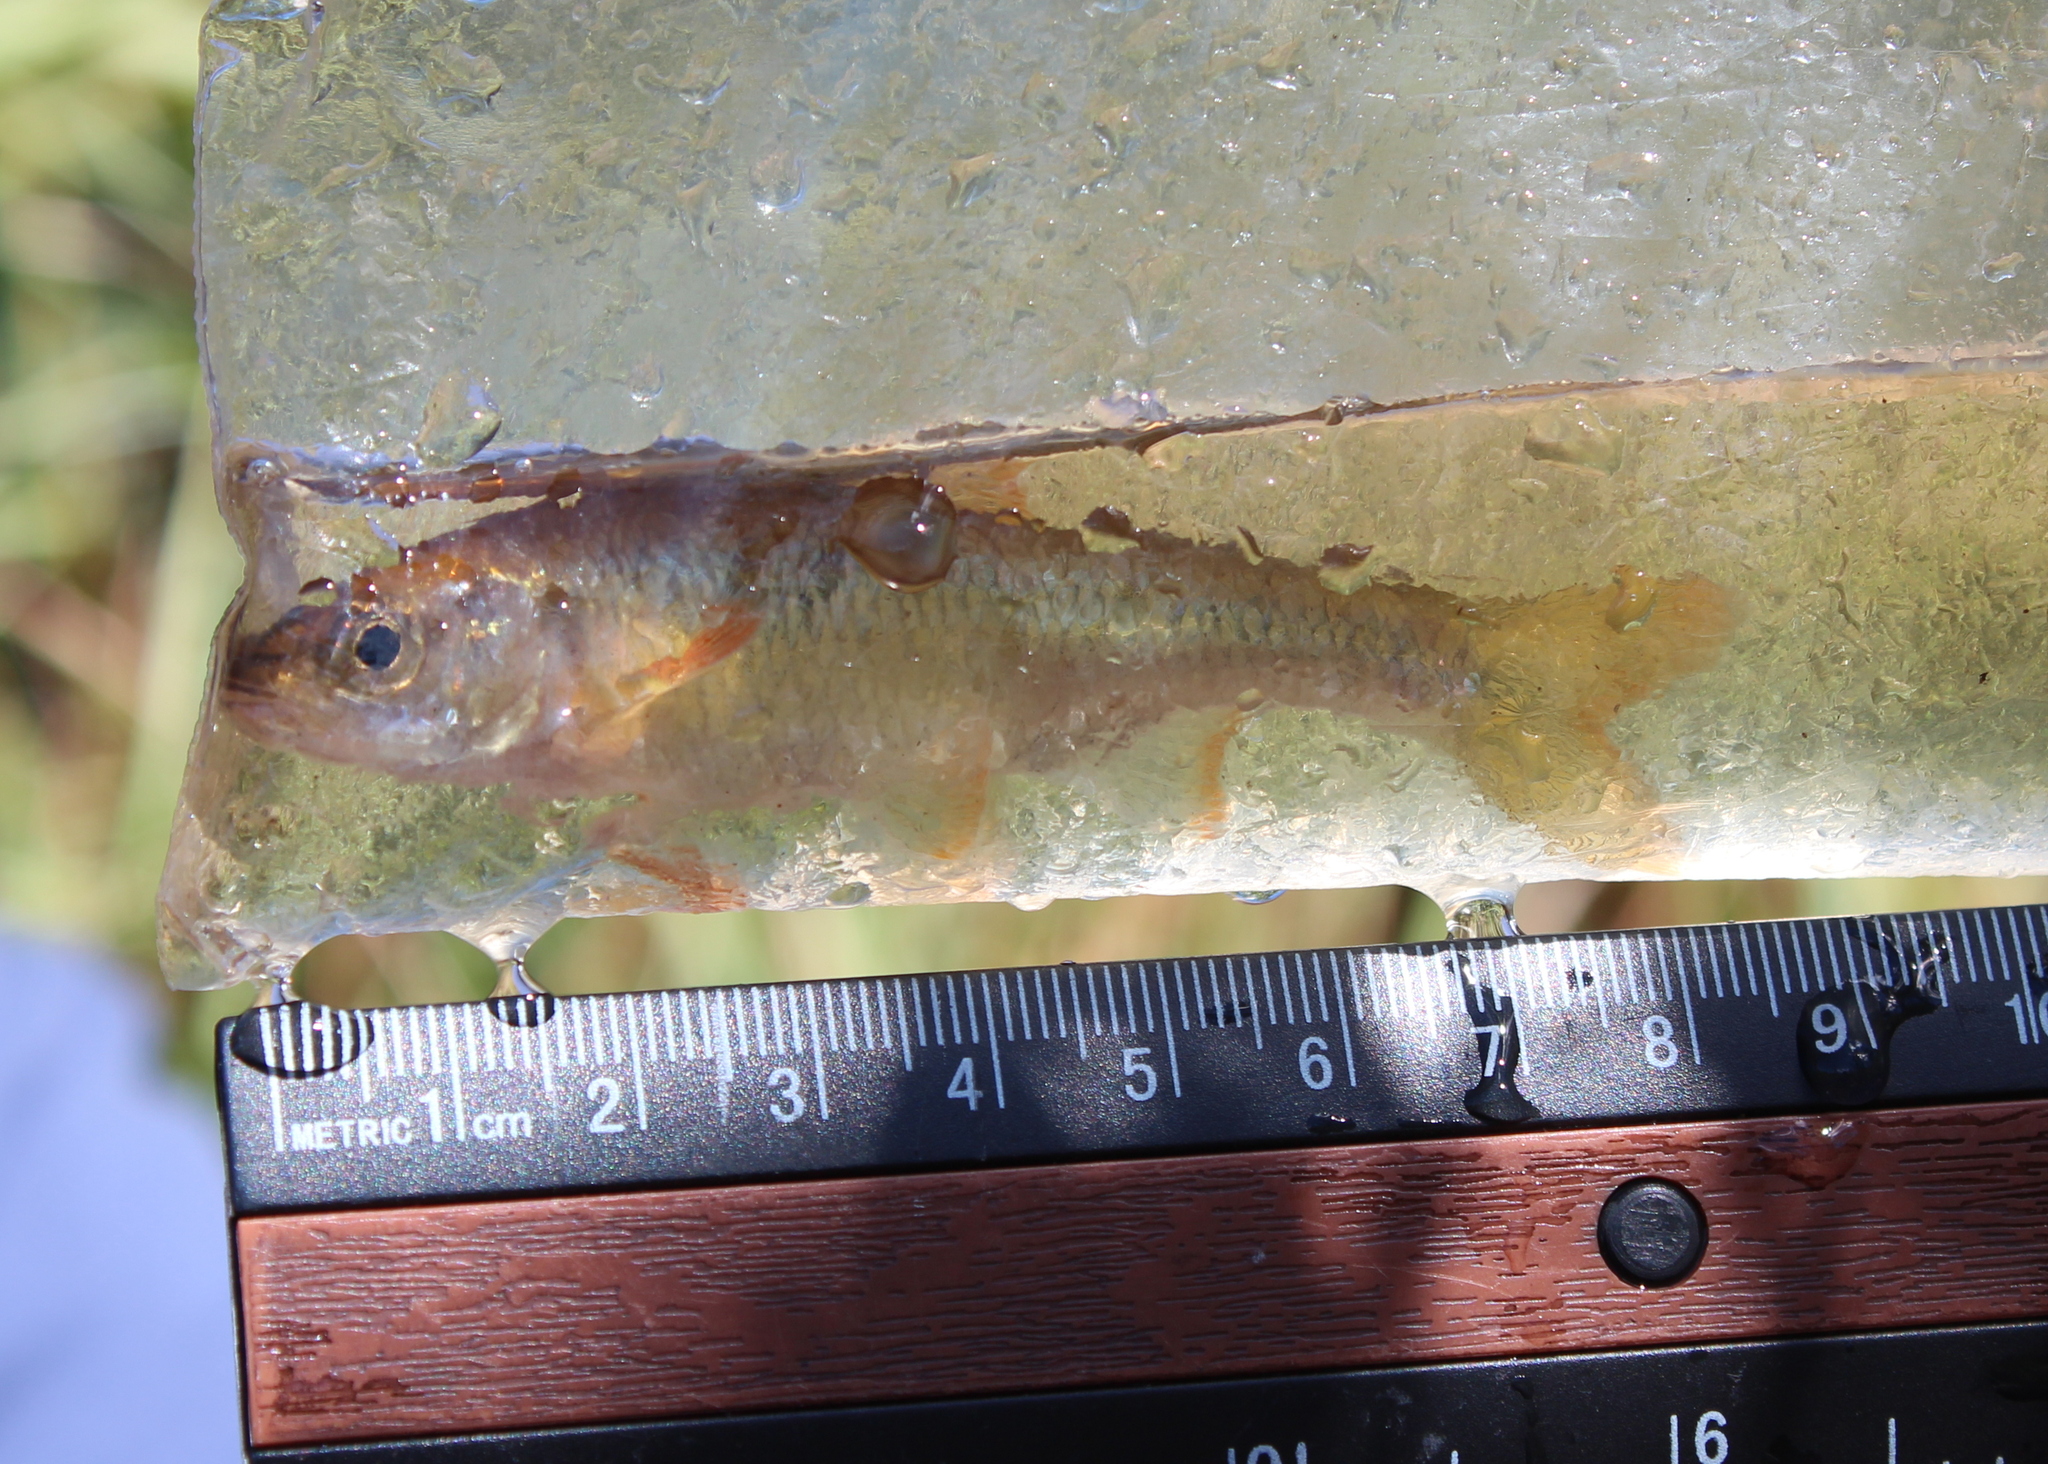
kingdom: Animalia
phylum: Chordata
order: Cypriniformes
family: Cyprinidae
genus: Luxilus
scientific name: Luxilus cornutus
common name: Common shiner
